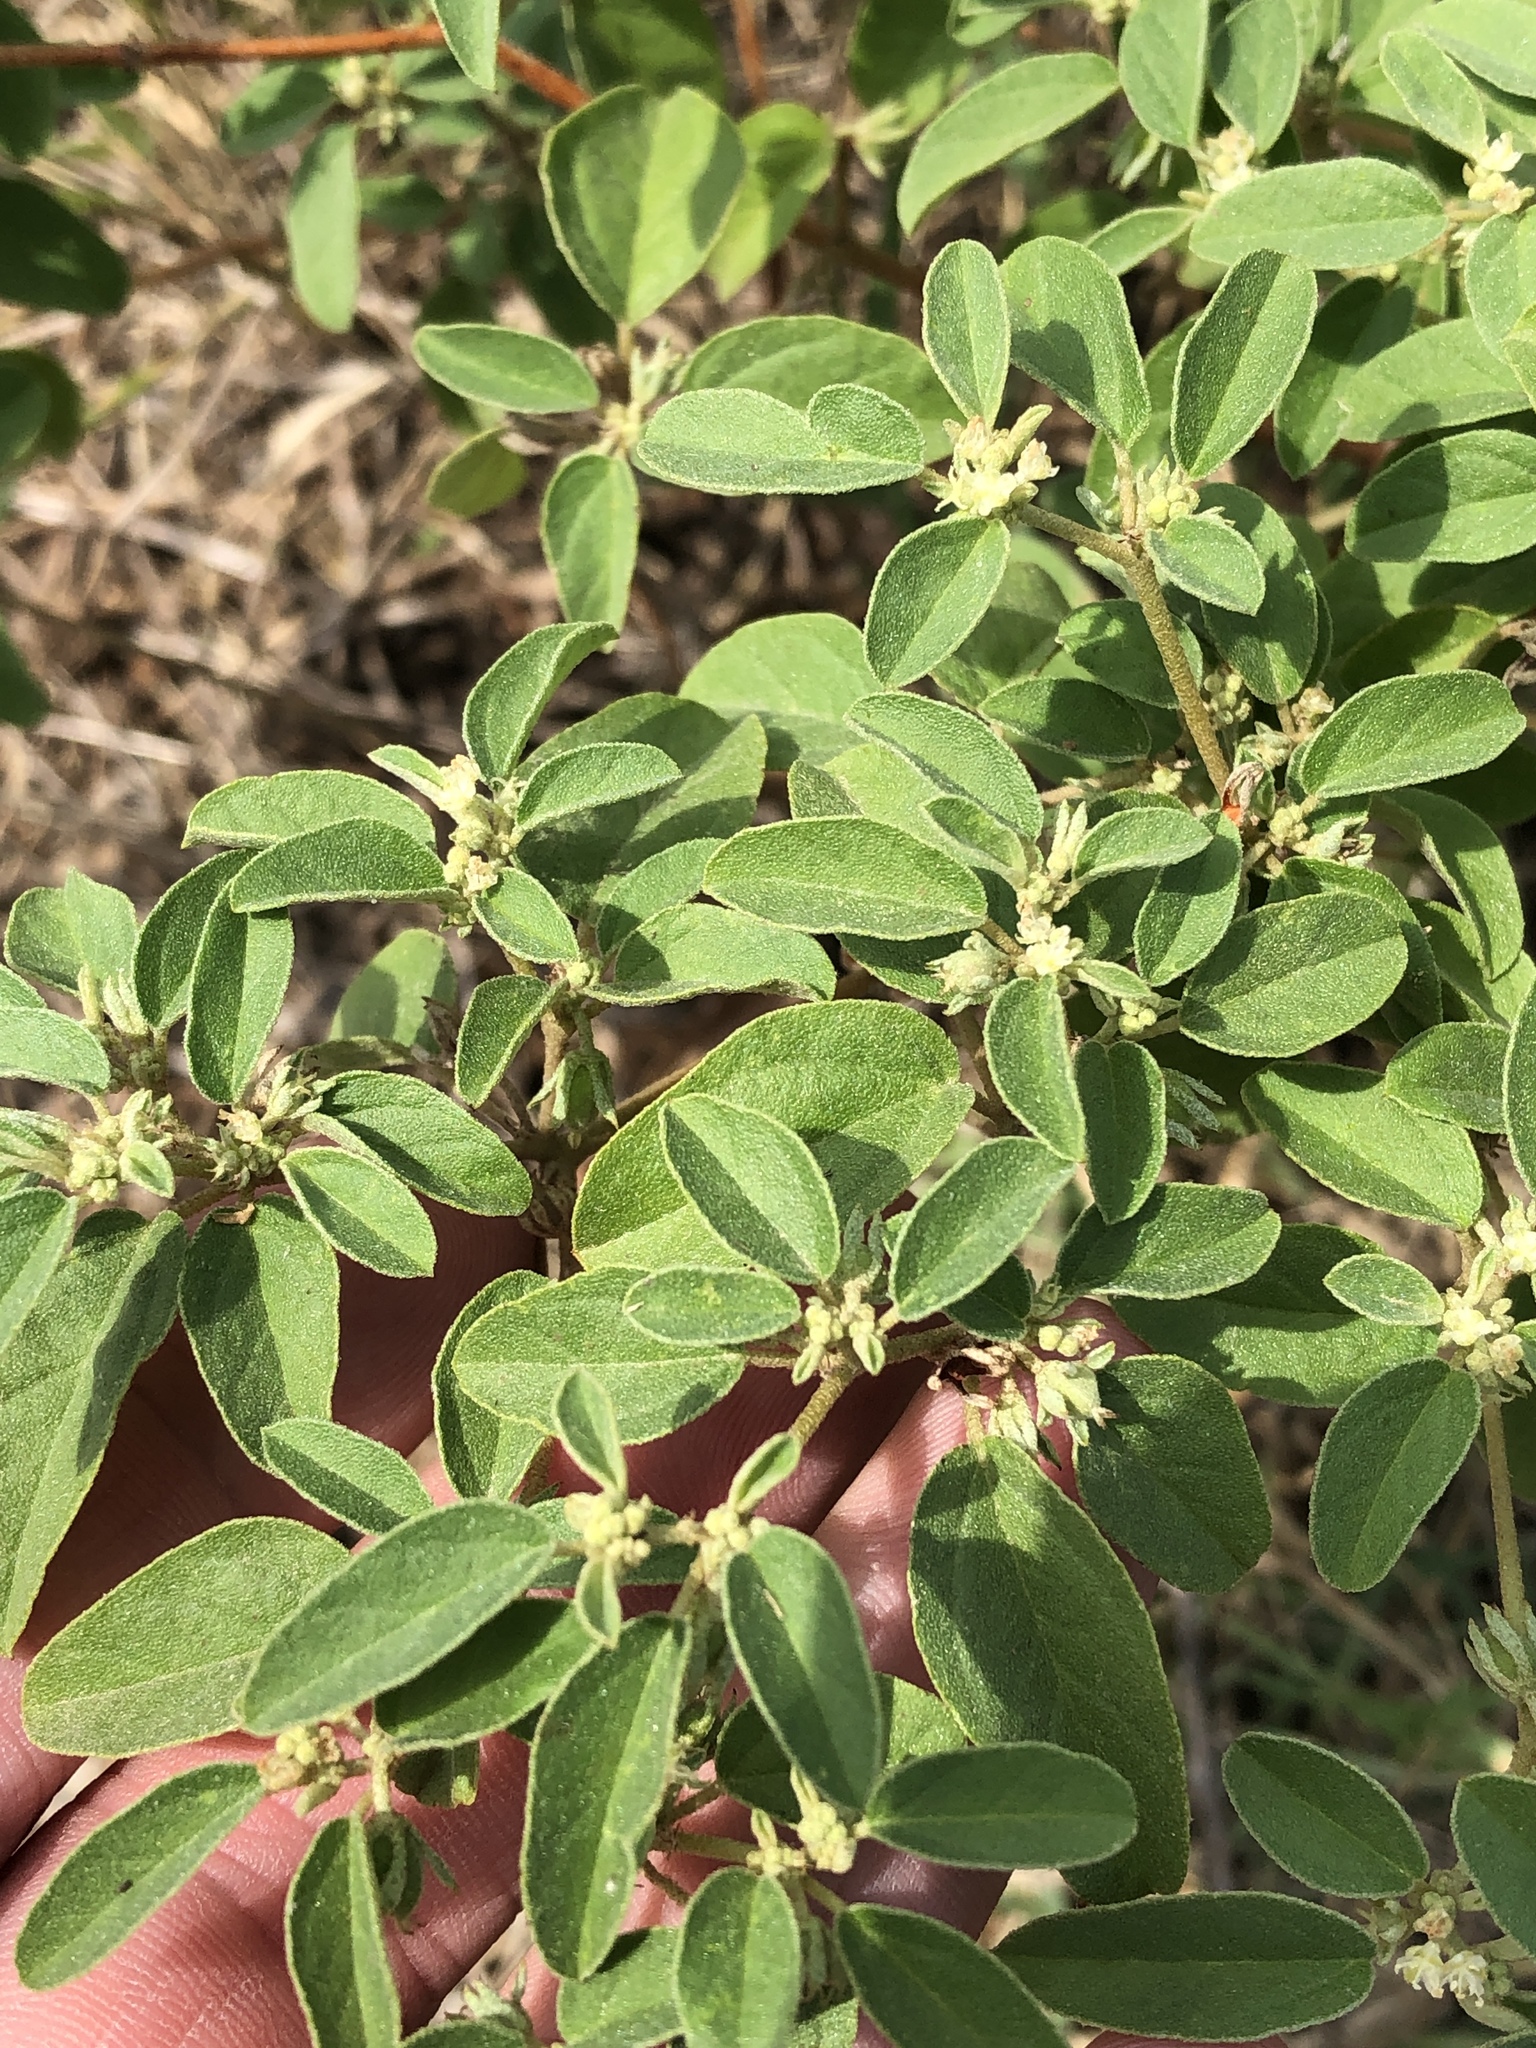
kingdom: Plantae
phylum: Tracheophyta
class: Magnoliopsida
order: Malpighiales
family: Euphorbiaceae
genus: Croton
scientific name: Croton monanthogynus
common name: One-seed croton
